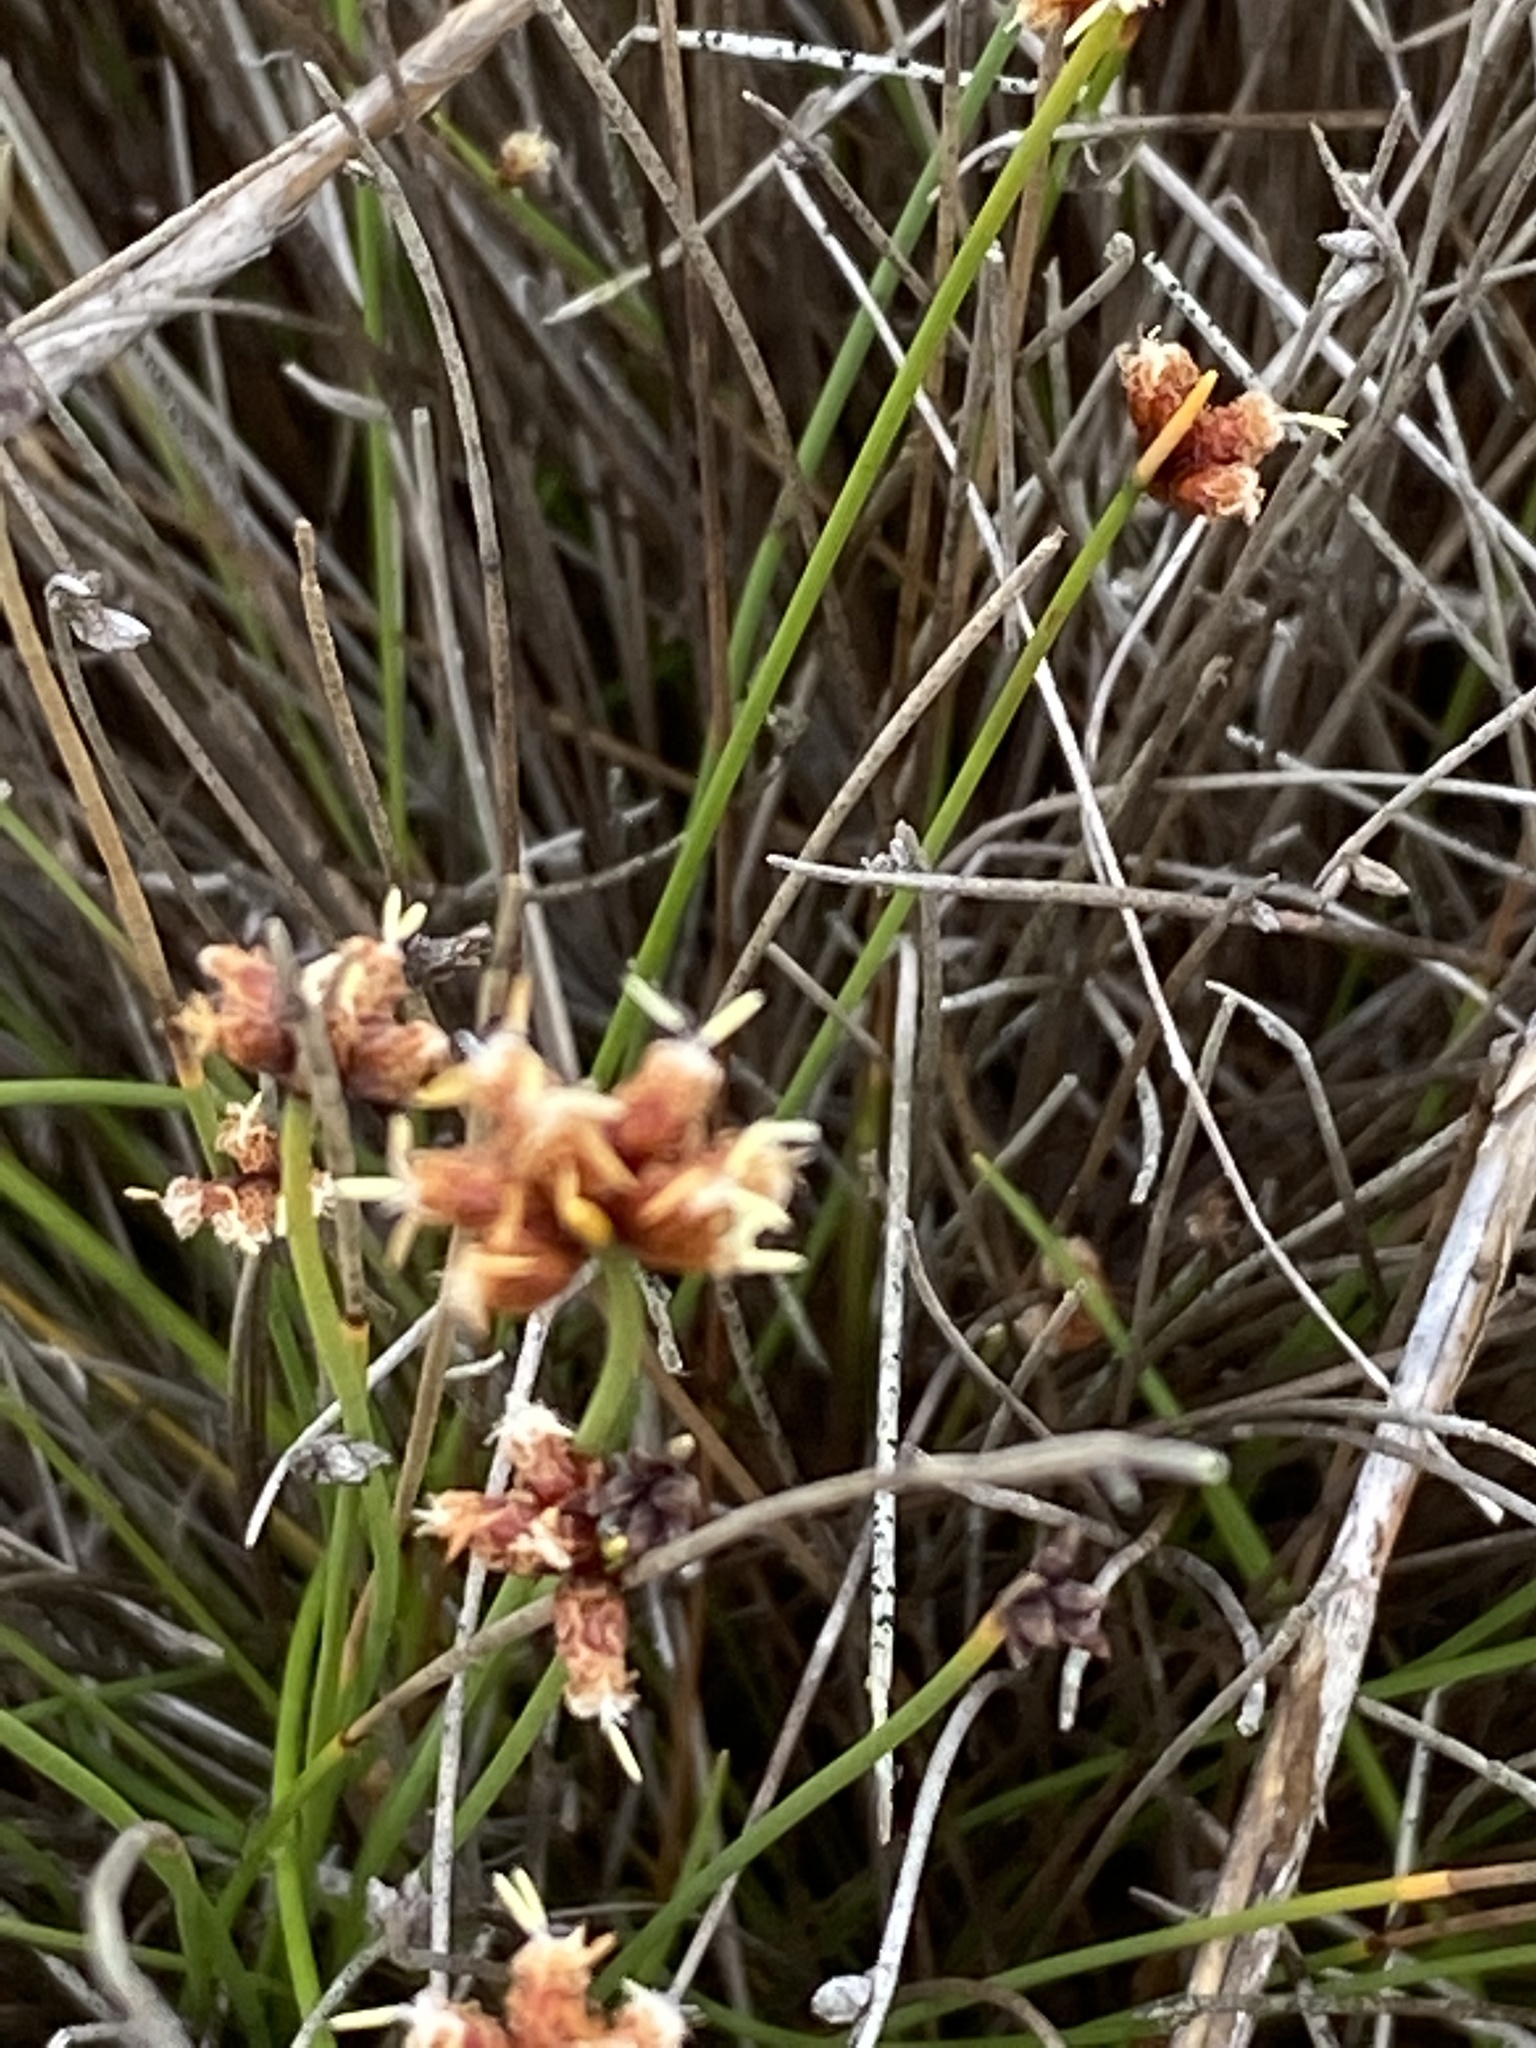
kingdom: Plantae
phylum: Tracheophyta
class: Liliopsida
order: Poales
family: Cyperaceae
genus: Ficinia
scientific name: Ficinia lateralis
